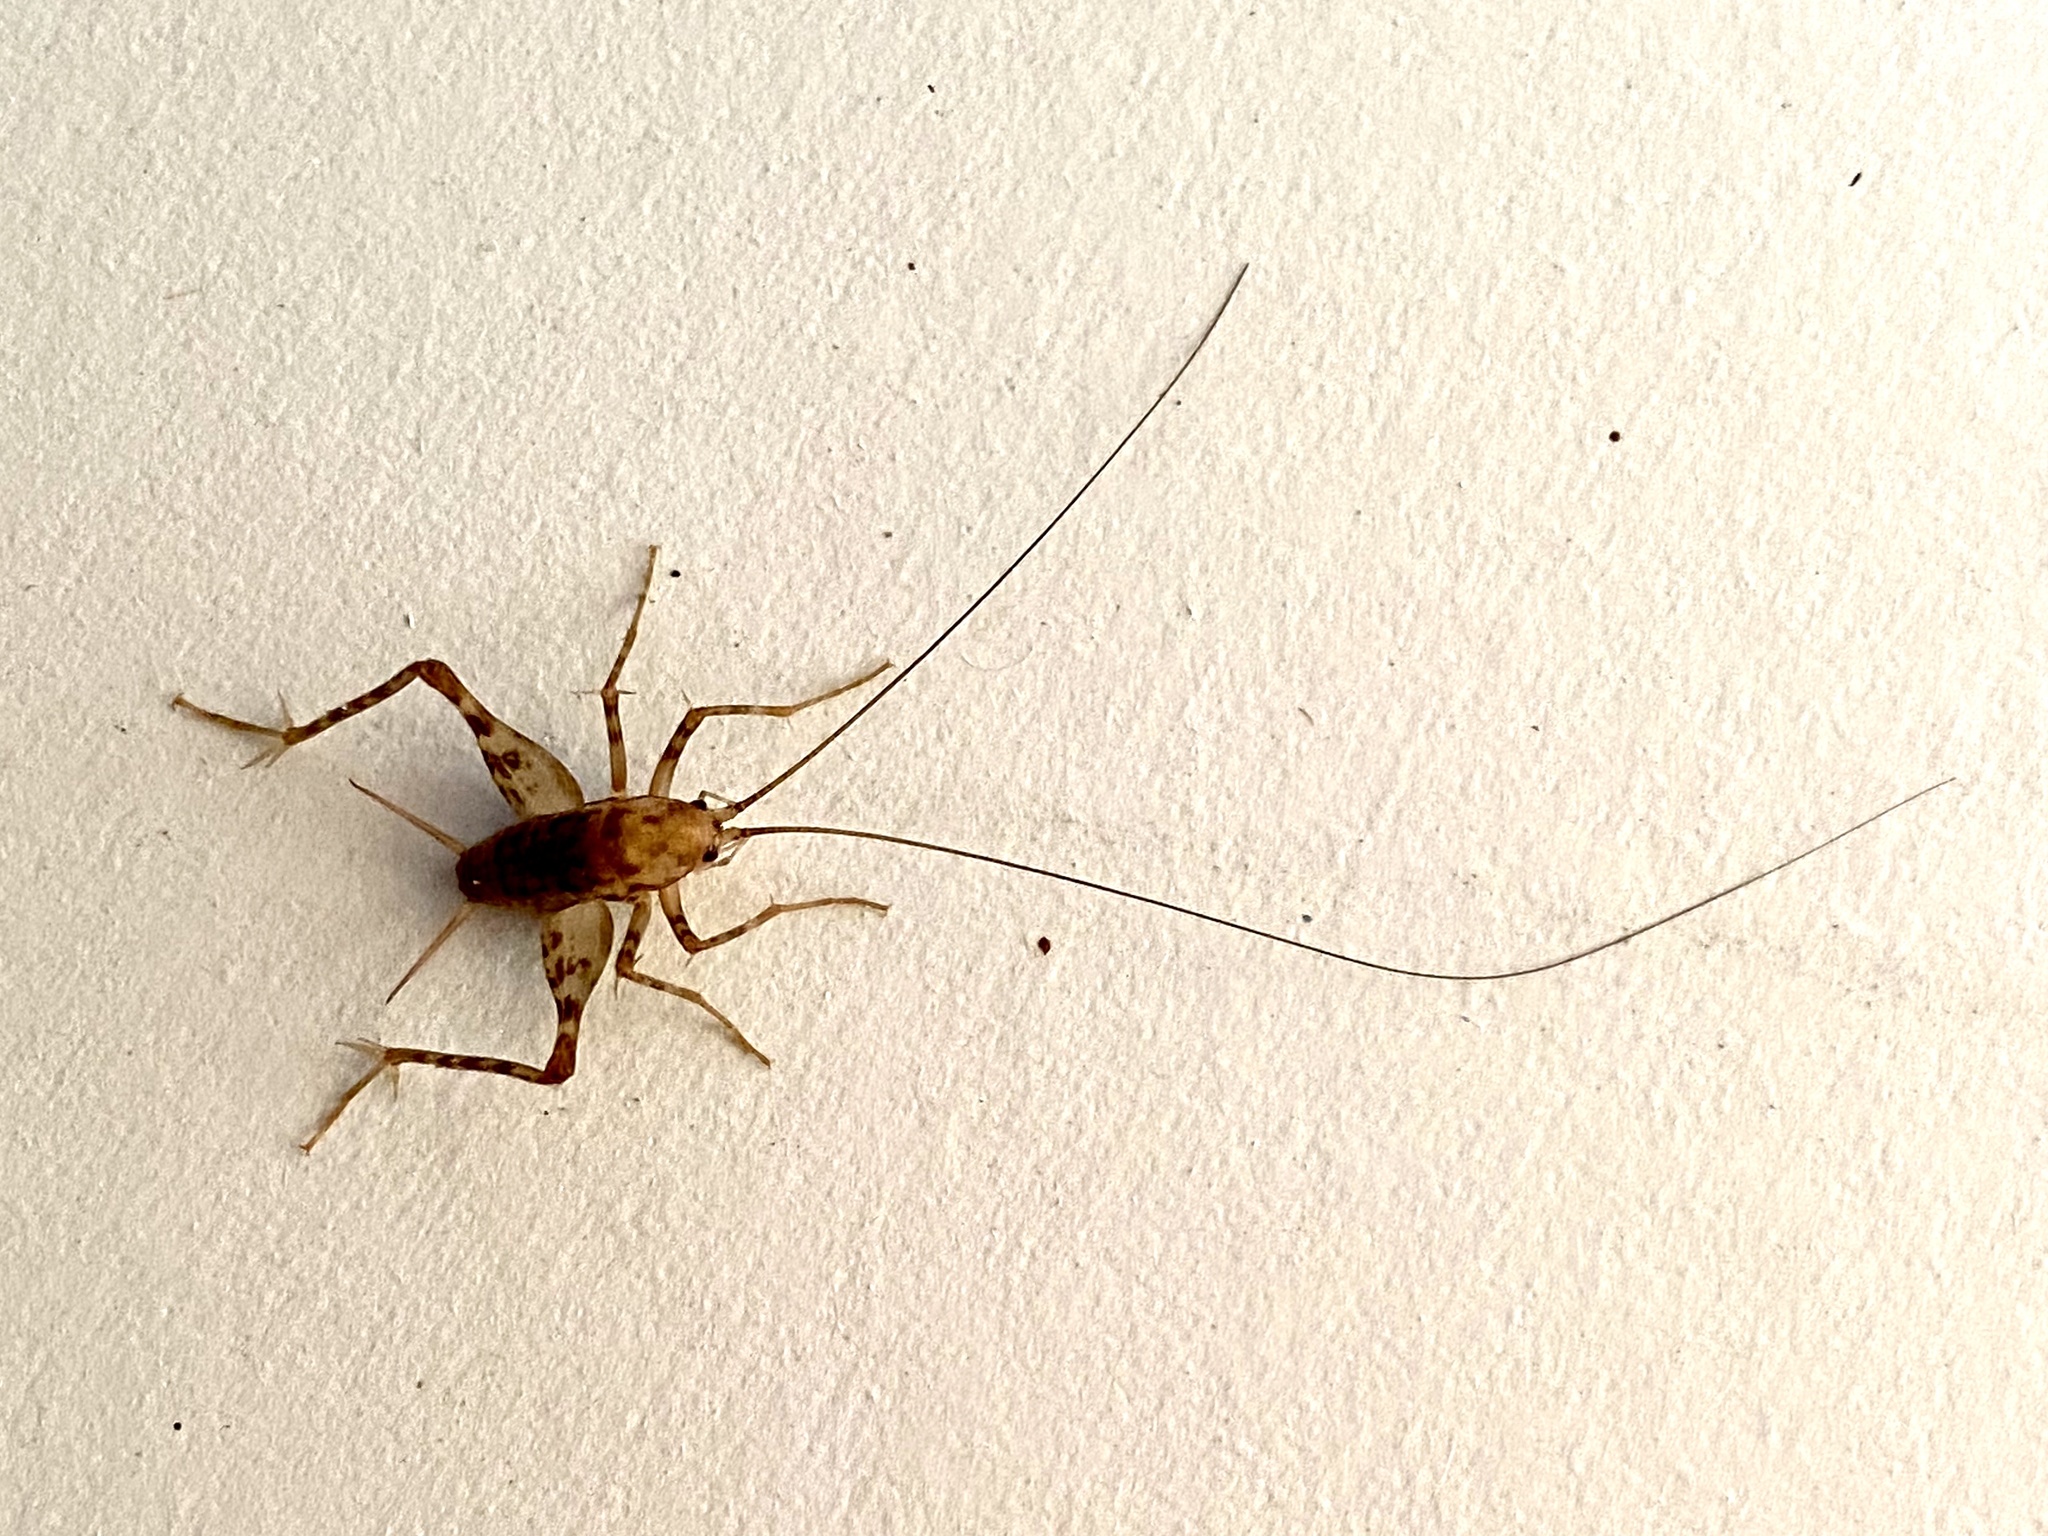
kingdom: Animalia
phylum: Arthropoda
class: Insecta
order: Orthoptera
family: Rhaphidophoridae
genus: Tachycines
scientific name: Tachycines asynamorus
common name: Greenhouse camel cricket
